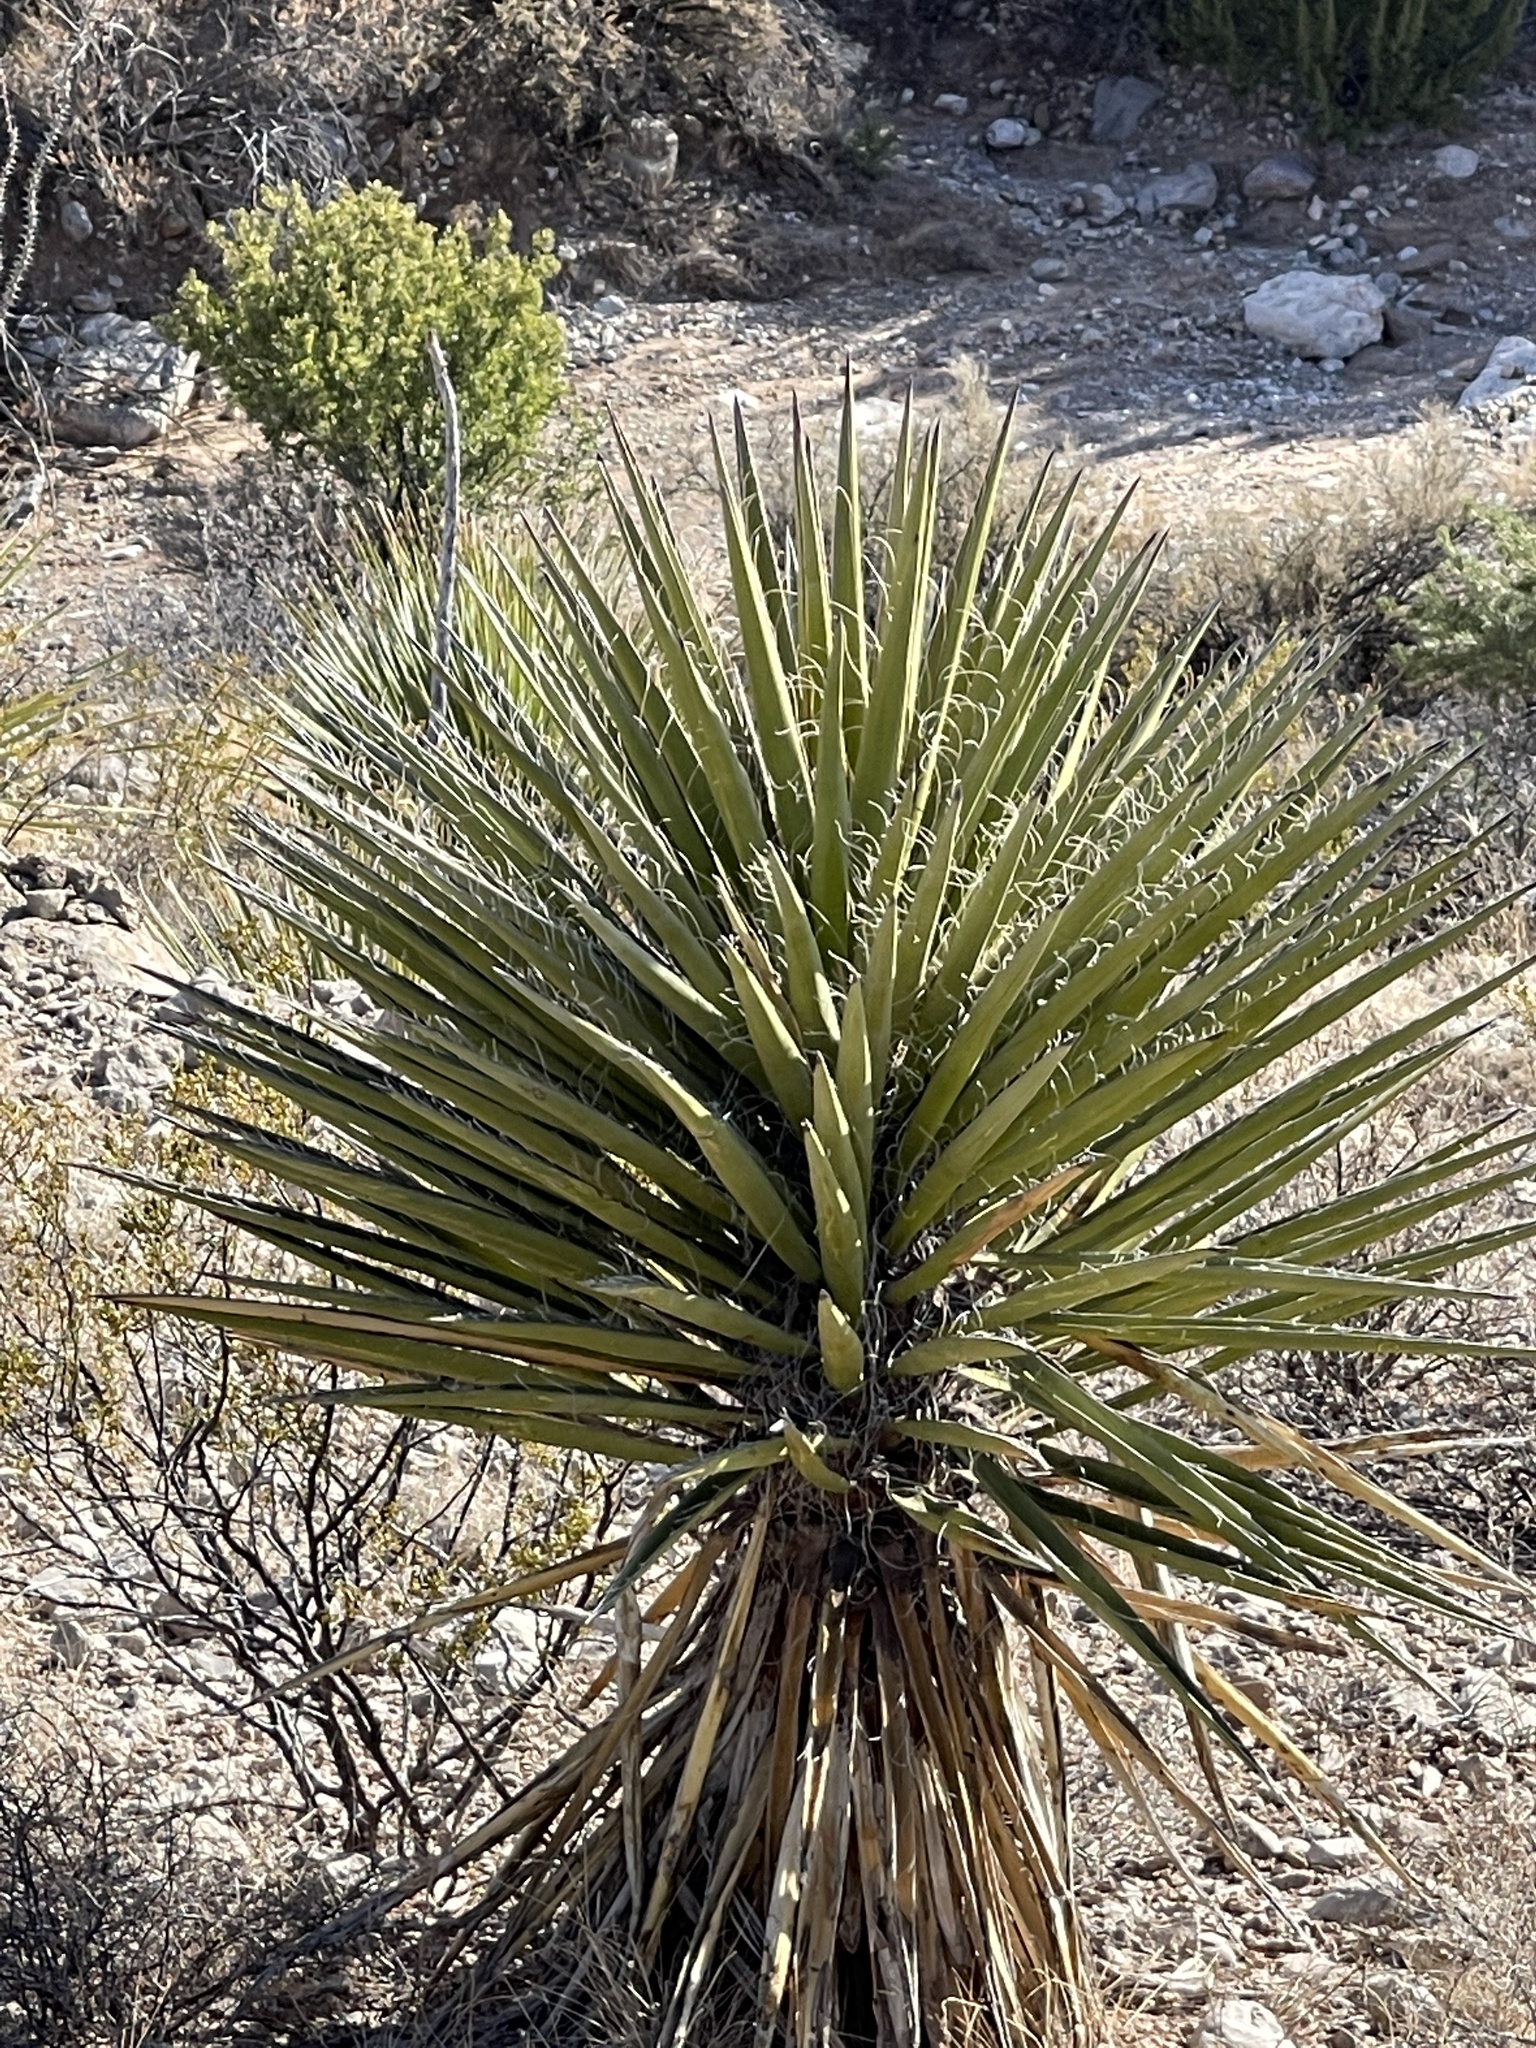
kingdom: Plantae
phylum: Tracheophyta
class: Liliopsida
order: Asparagales
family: Asparagaceae
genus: Yucca
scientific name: Yucca treculiana
